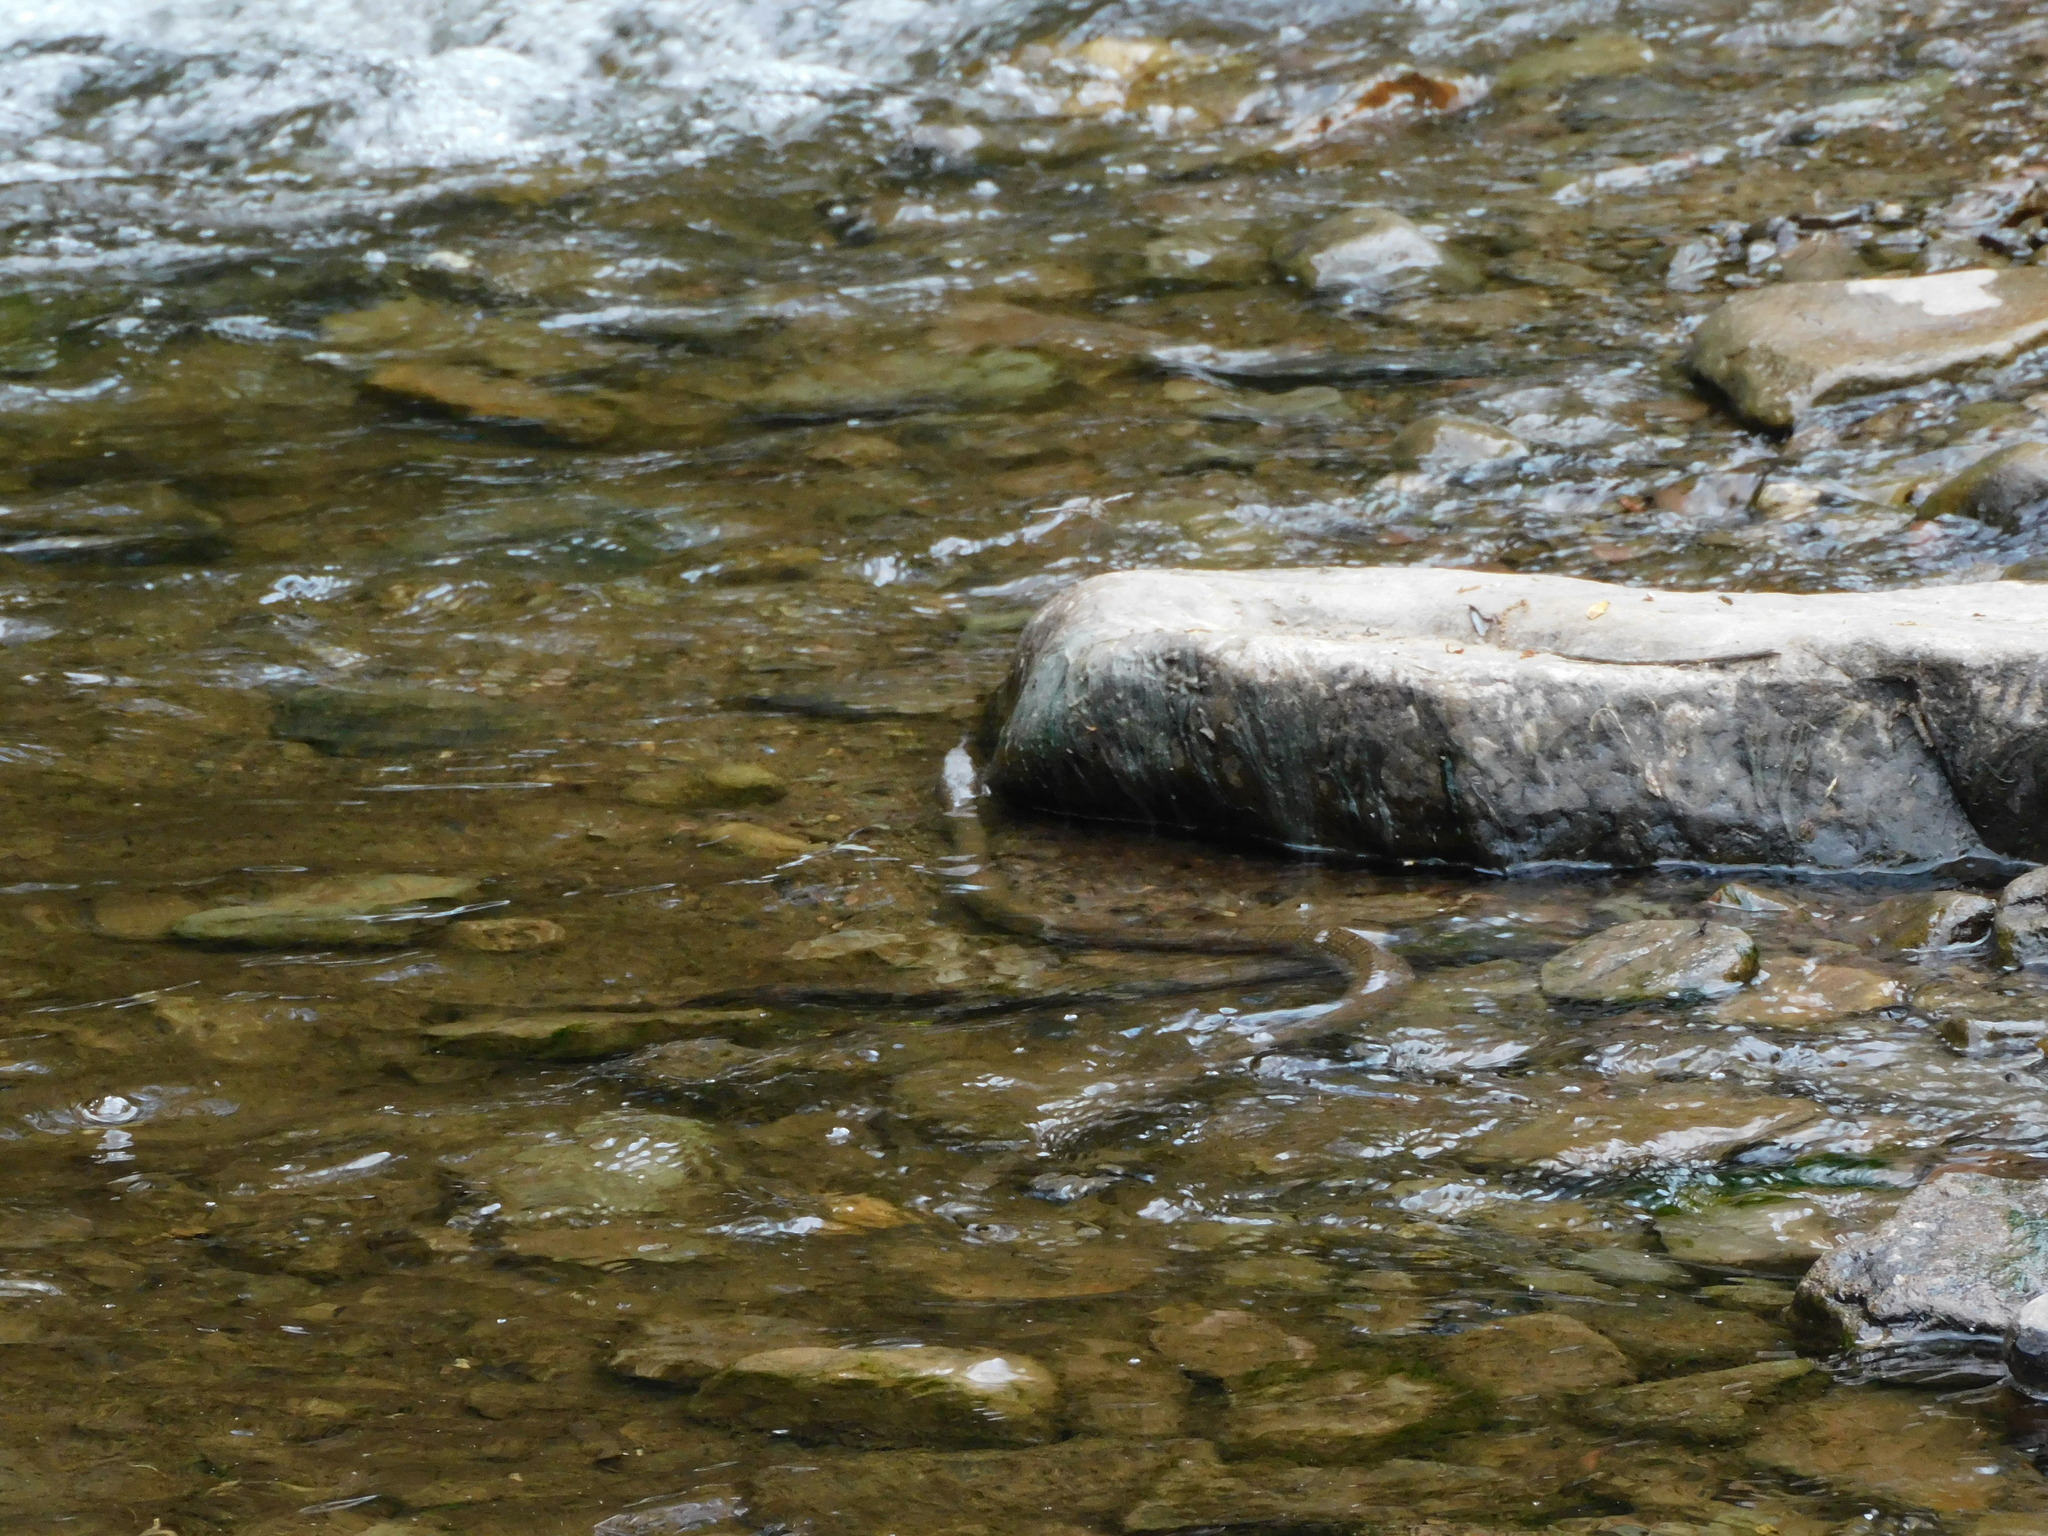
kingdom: Animalia
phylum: Chordata
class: Squamata
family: Colubridae
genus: Nerodia
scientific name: Nerodia sipedon
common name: Northern water snake
